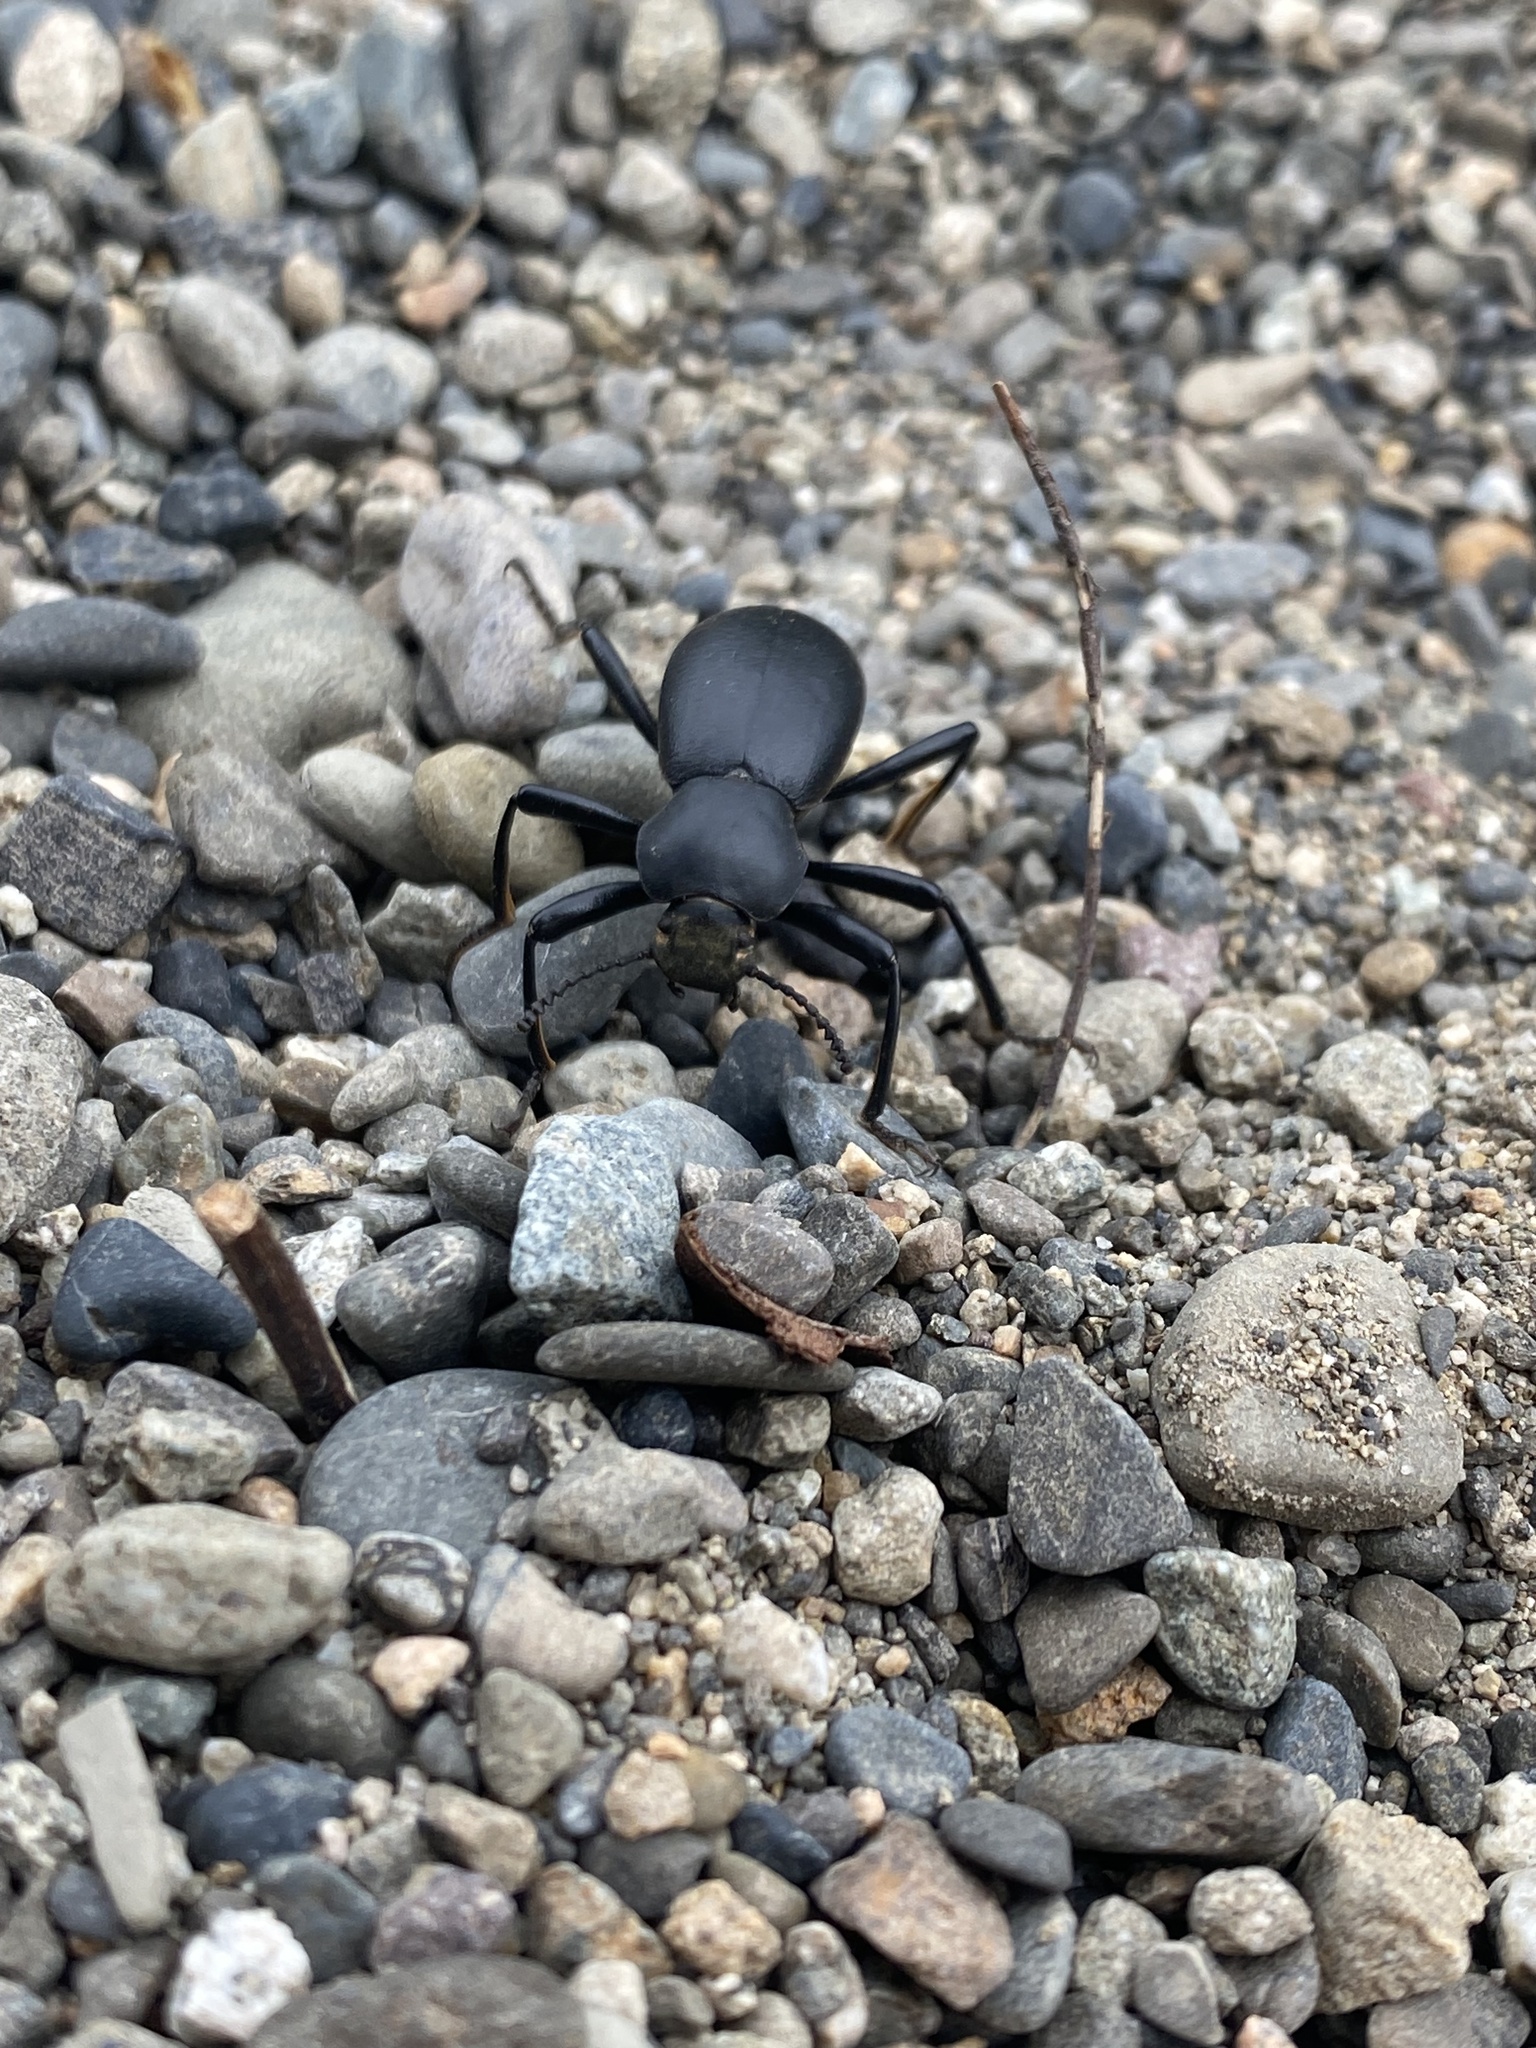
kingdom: Animalia
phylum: Arthropoda
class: Insecta
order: Coleoptera
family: Tenebrionidae
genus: Coelocnemis
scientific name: Coelocnemis dilaticollis
